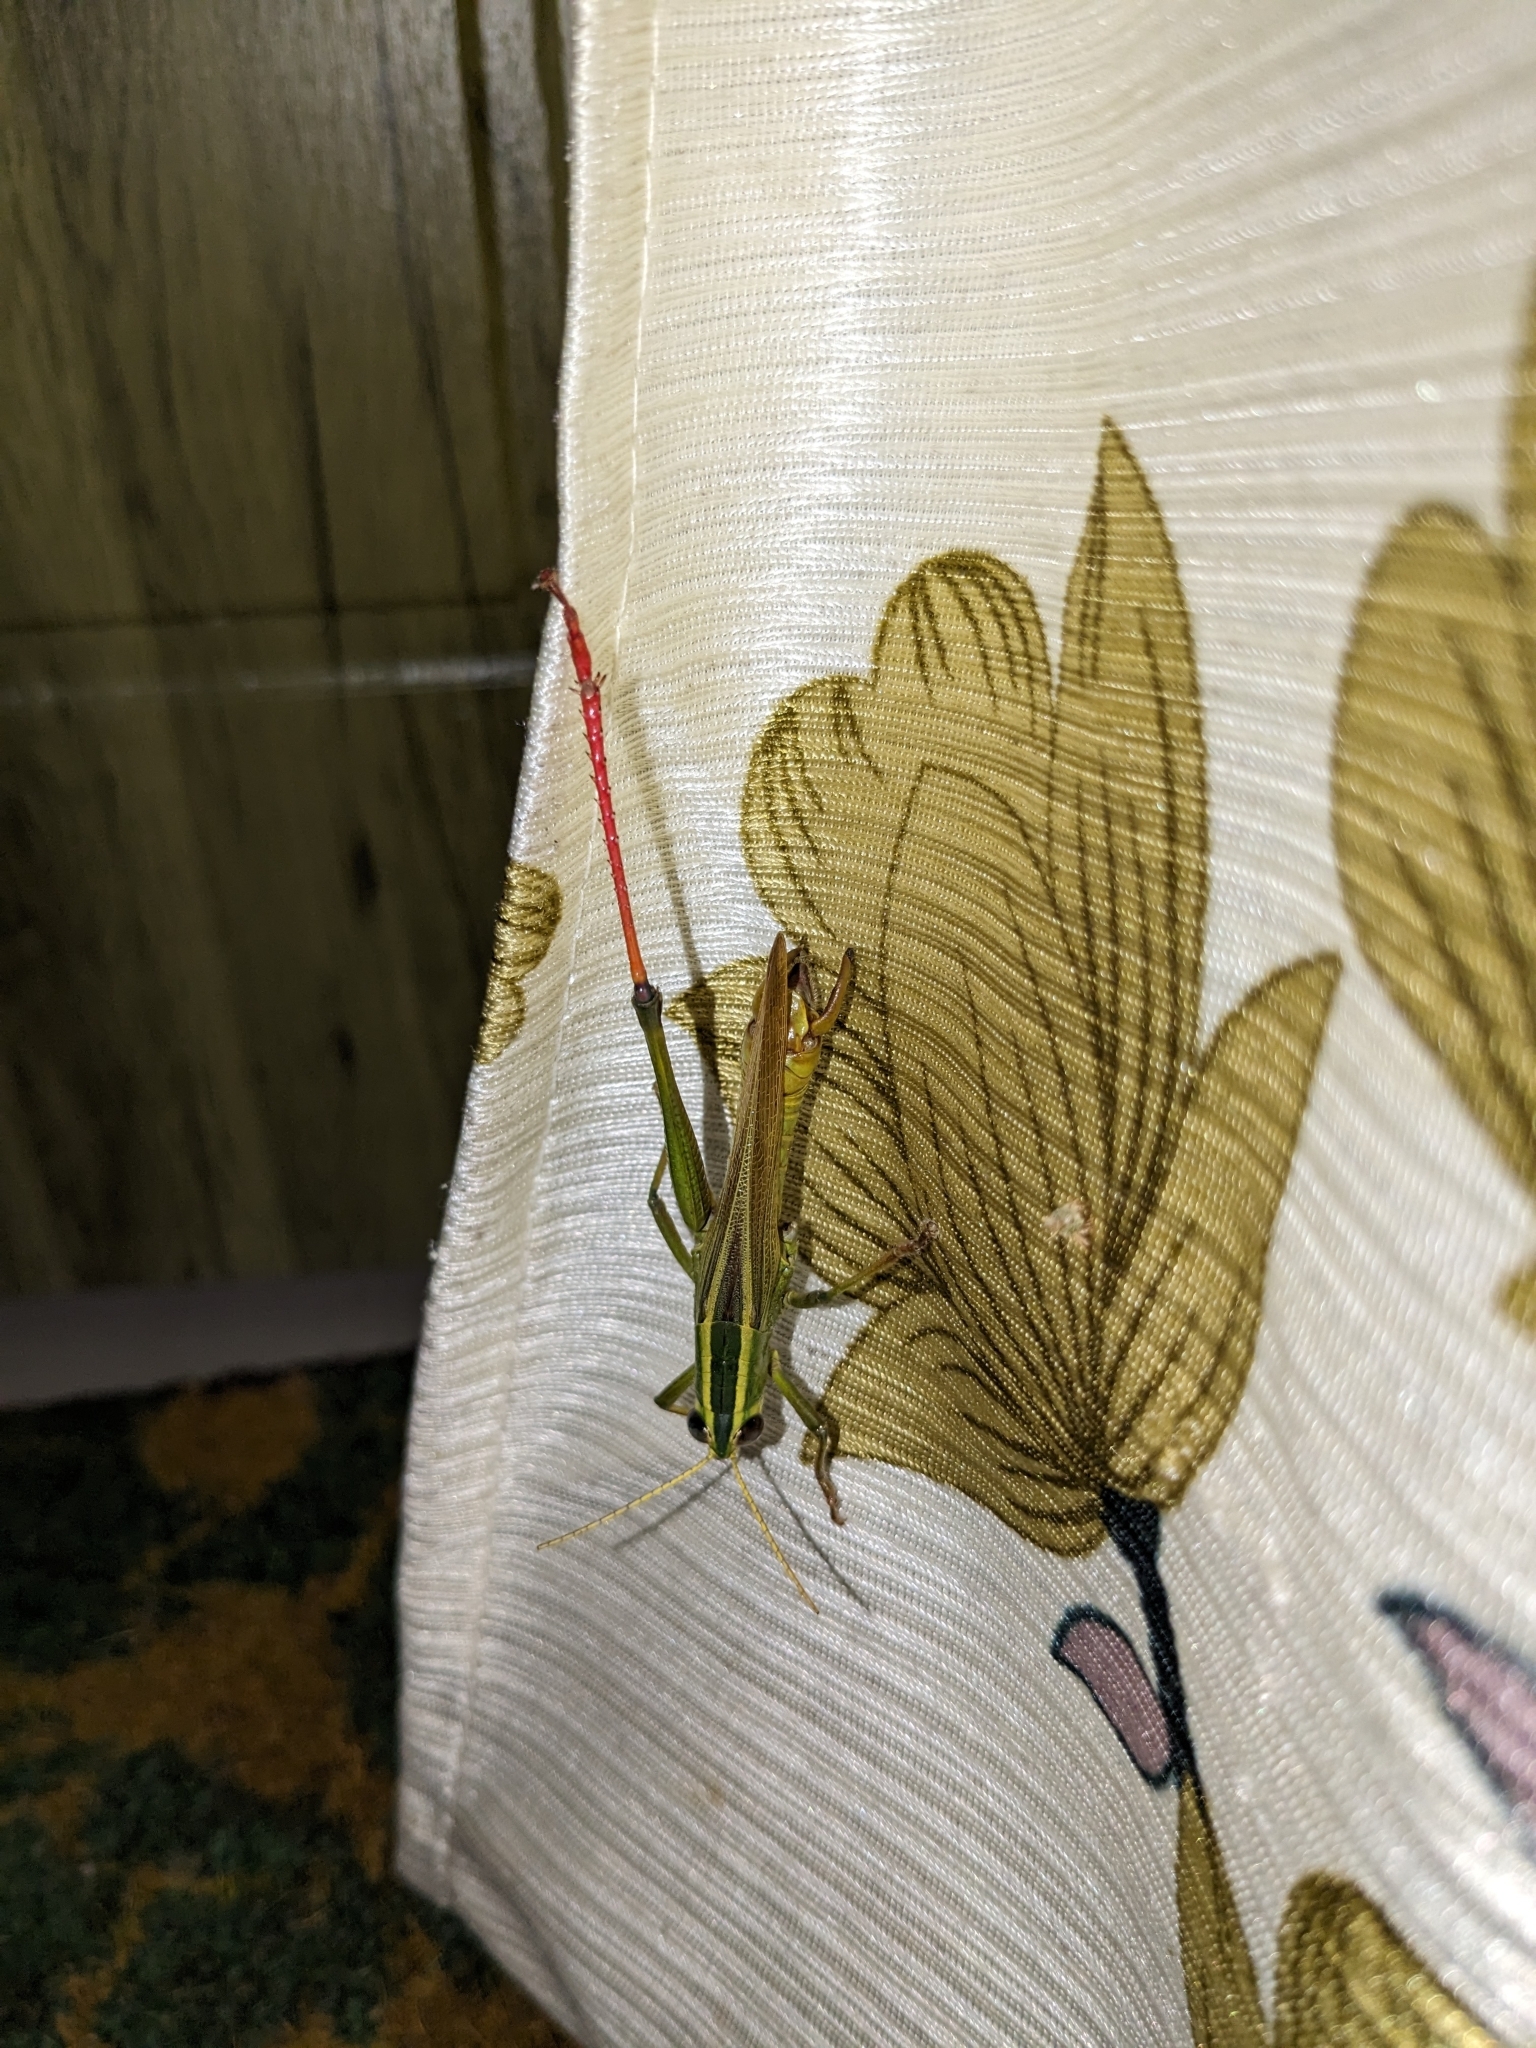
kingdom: Animalia
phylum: Arthropoda
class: Insecta
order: Orthoptera
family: Acrididae
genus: Choroedocus
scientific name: Choroedocus robustus
